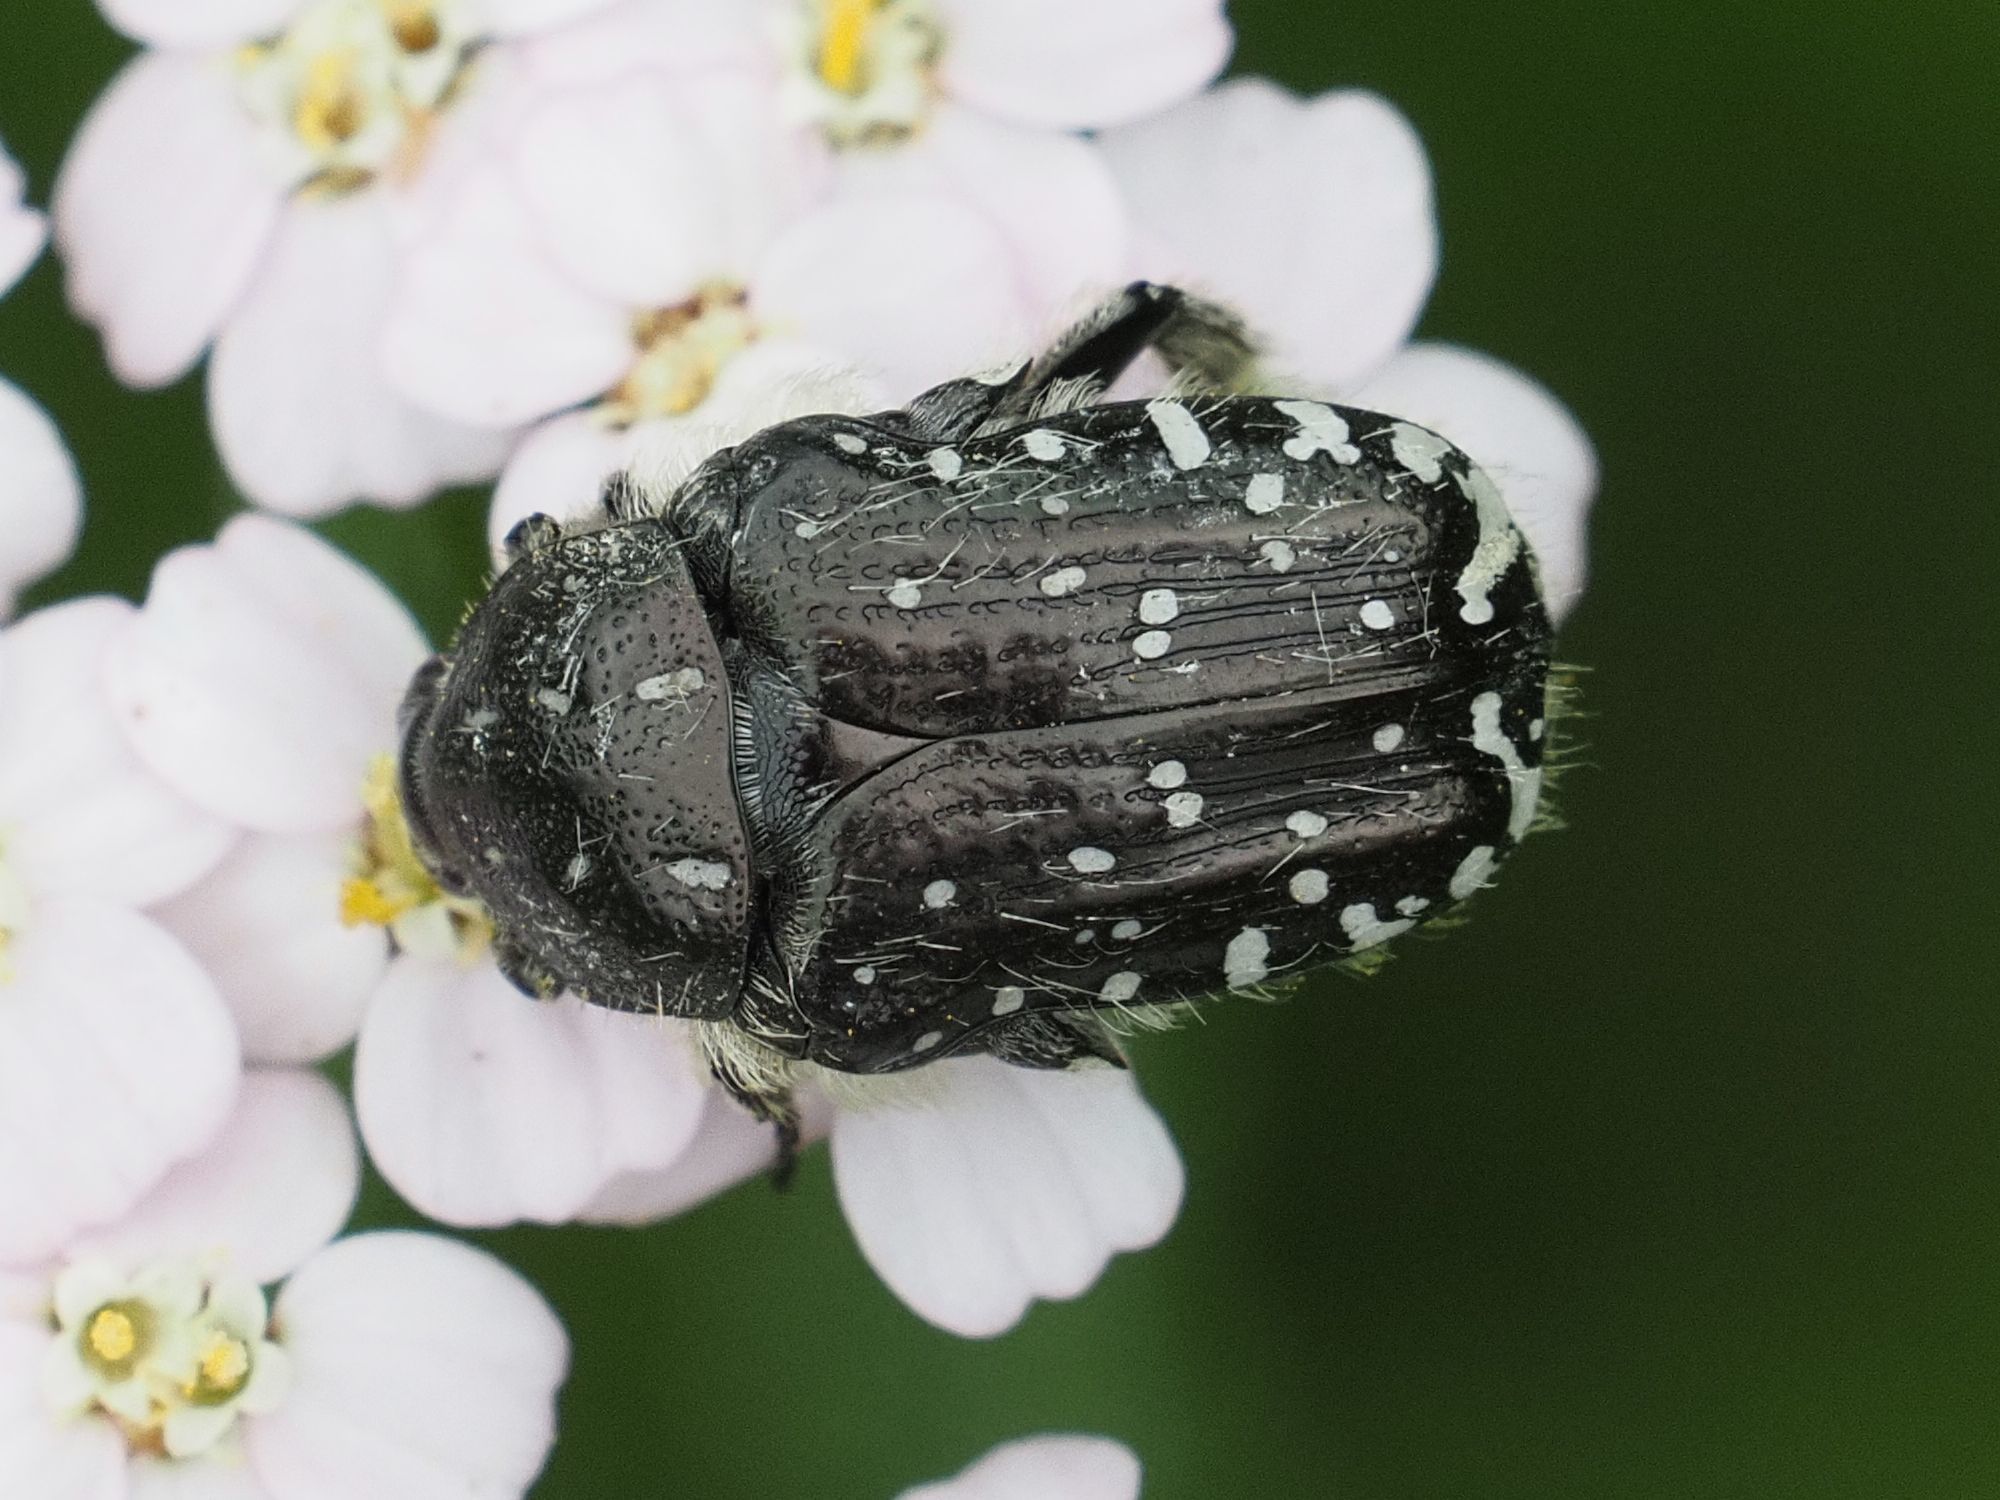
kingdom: Animalia
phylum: Arthropoda
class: Insecta
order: Coleoptera
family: Scarabaeidae
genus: Oxythyrea
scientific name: Oxythyrea funesta
